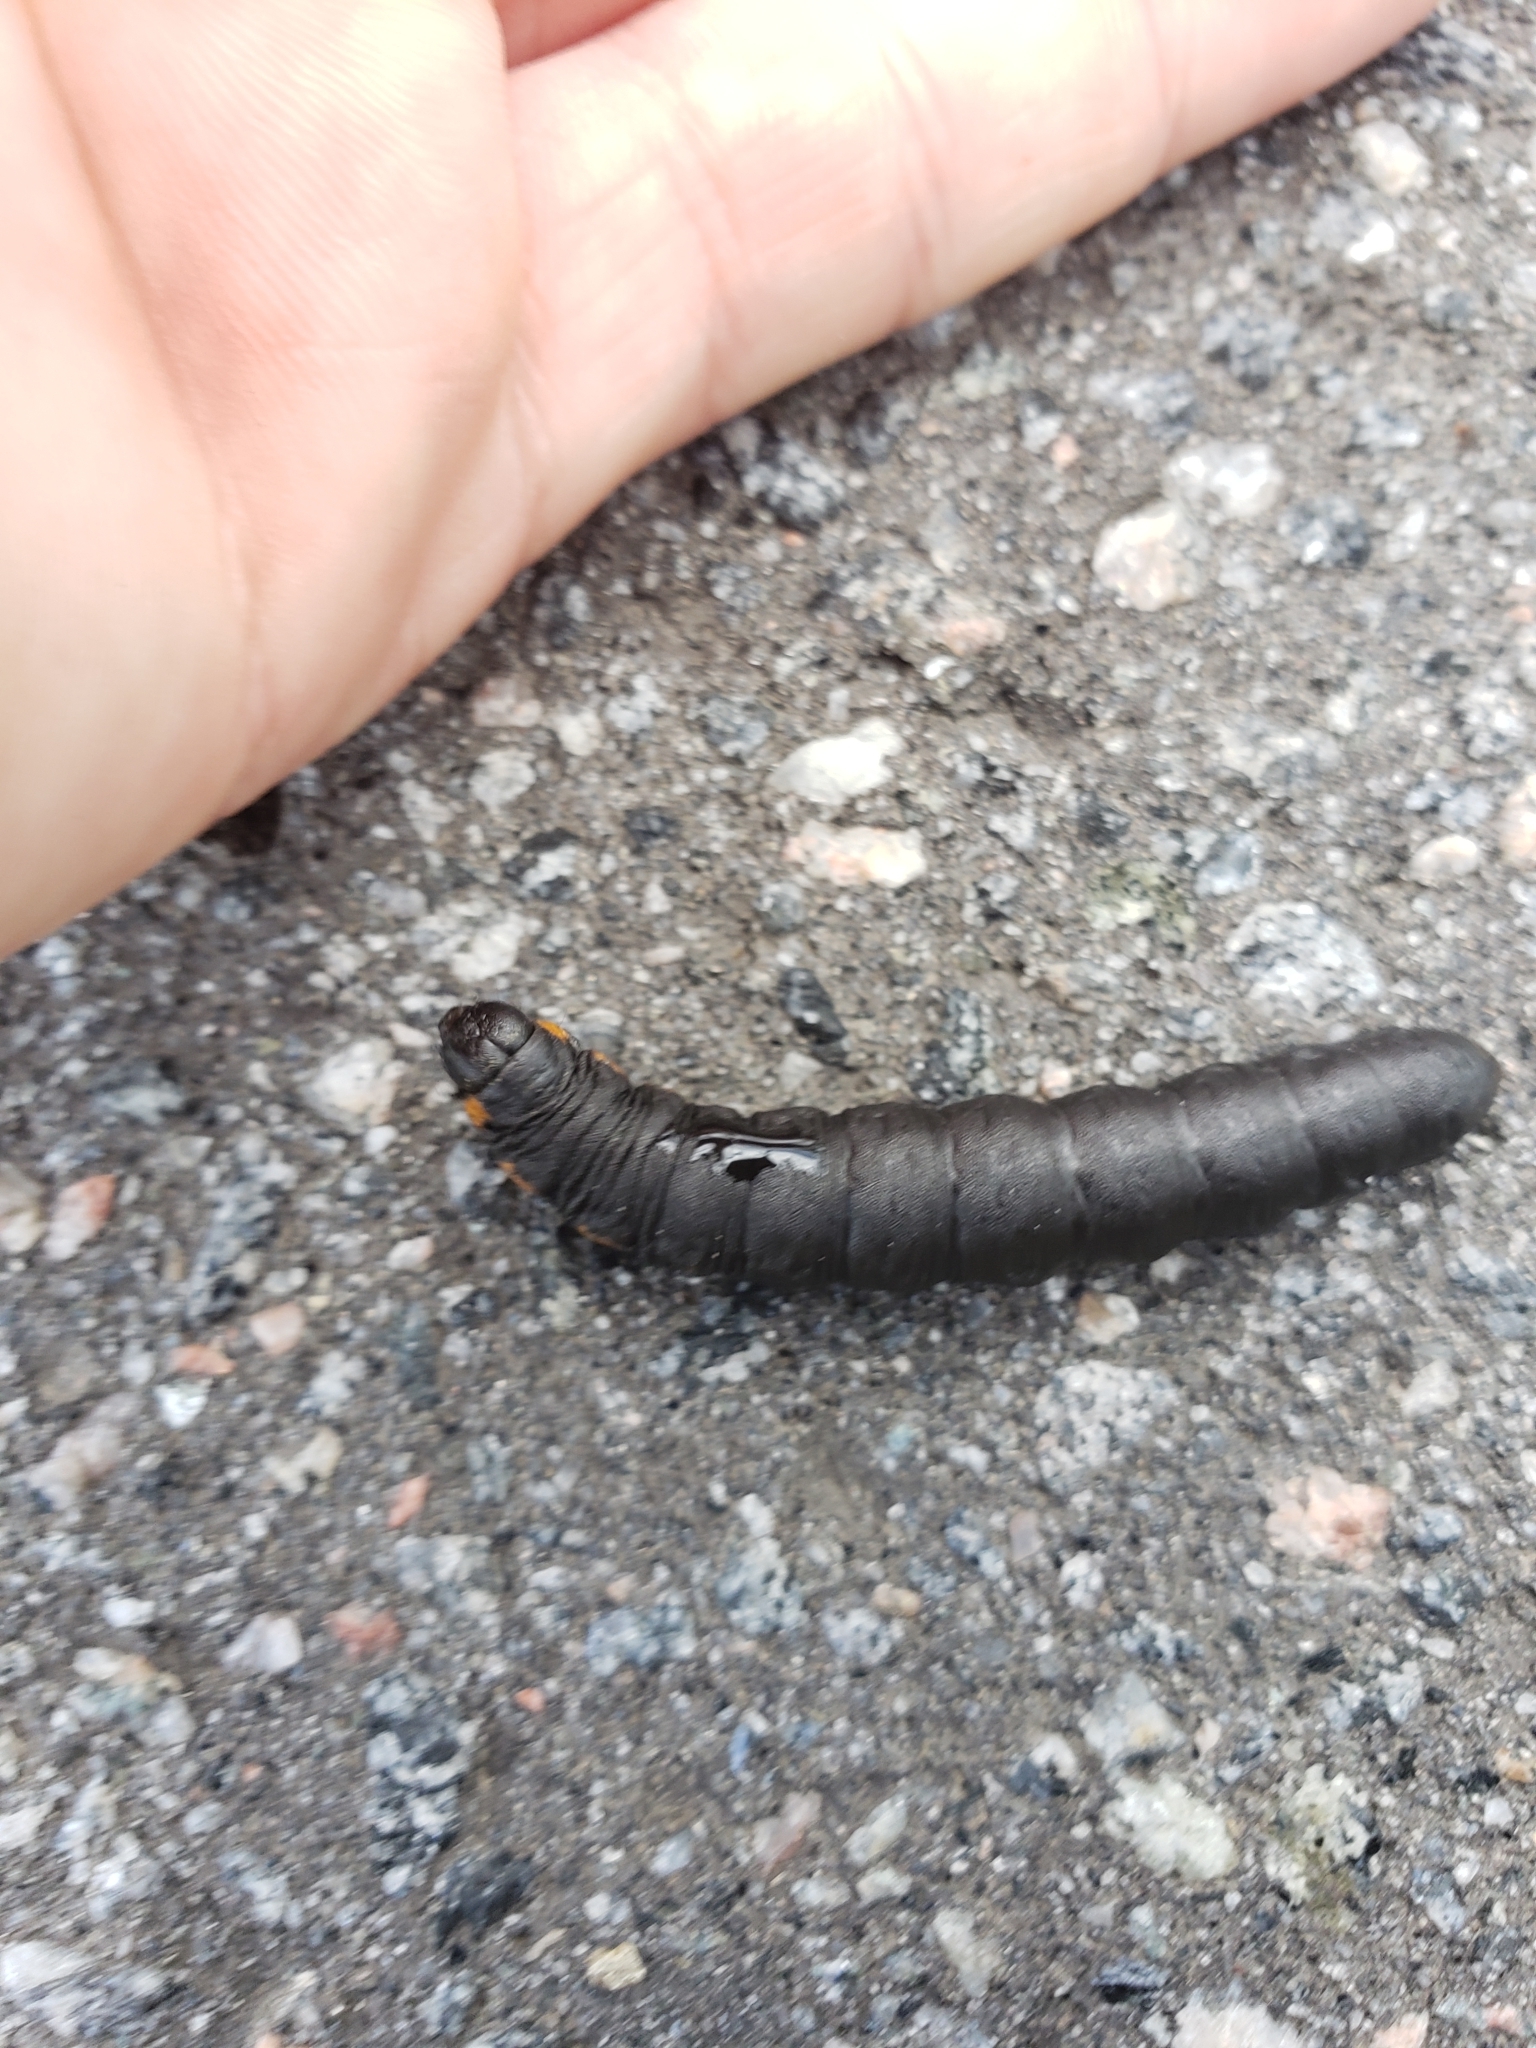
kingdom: Animalia
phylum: Arthropoda
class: Insecta
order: Lepidoptera
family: Noctuidae
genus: Cucullia
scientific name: Cucullia intermedia
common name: Goldenrod cutworm
